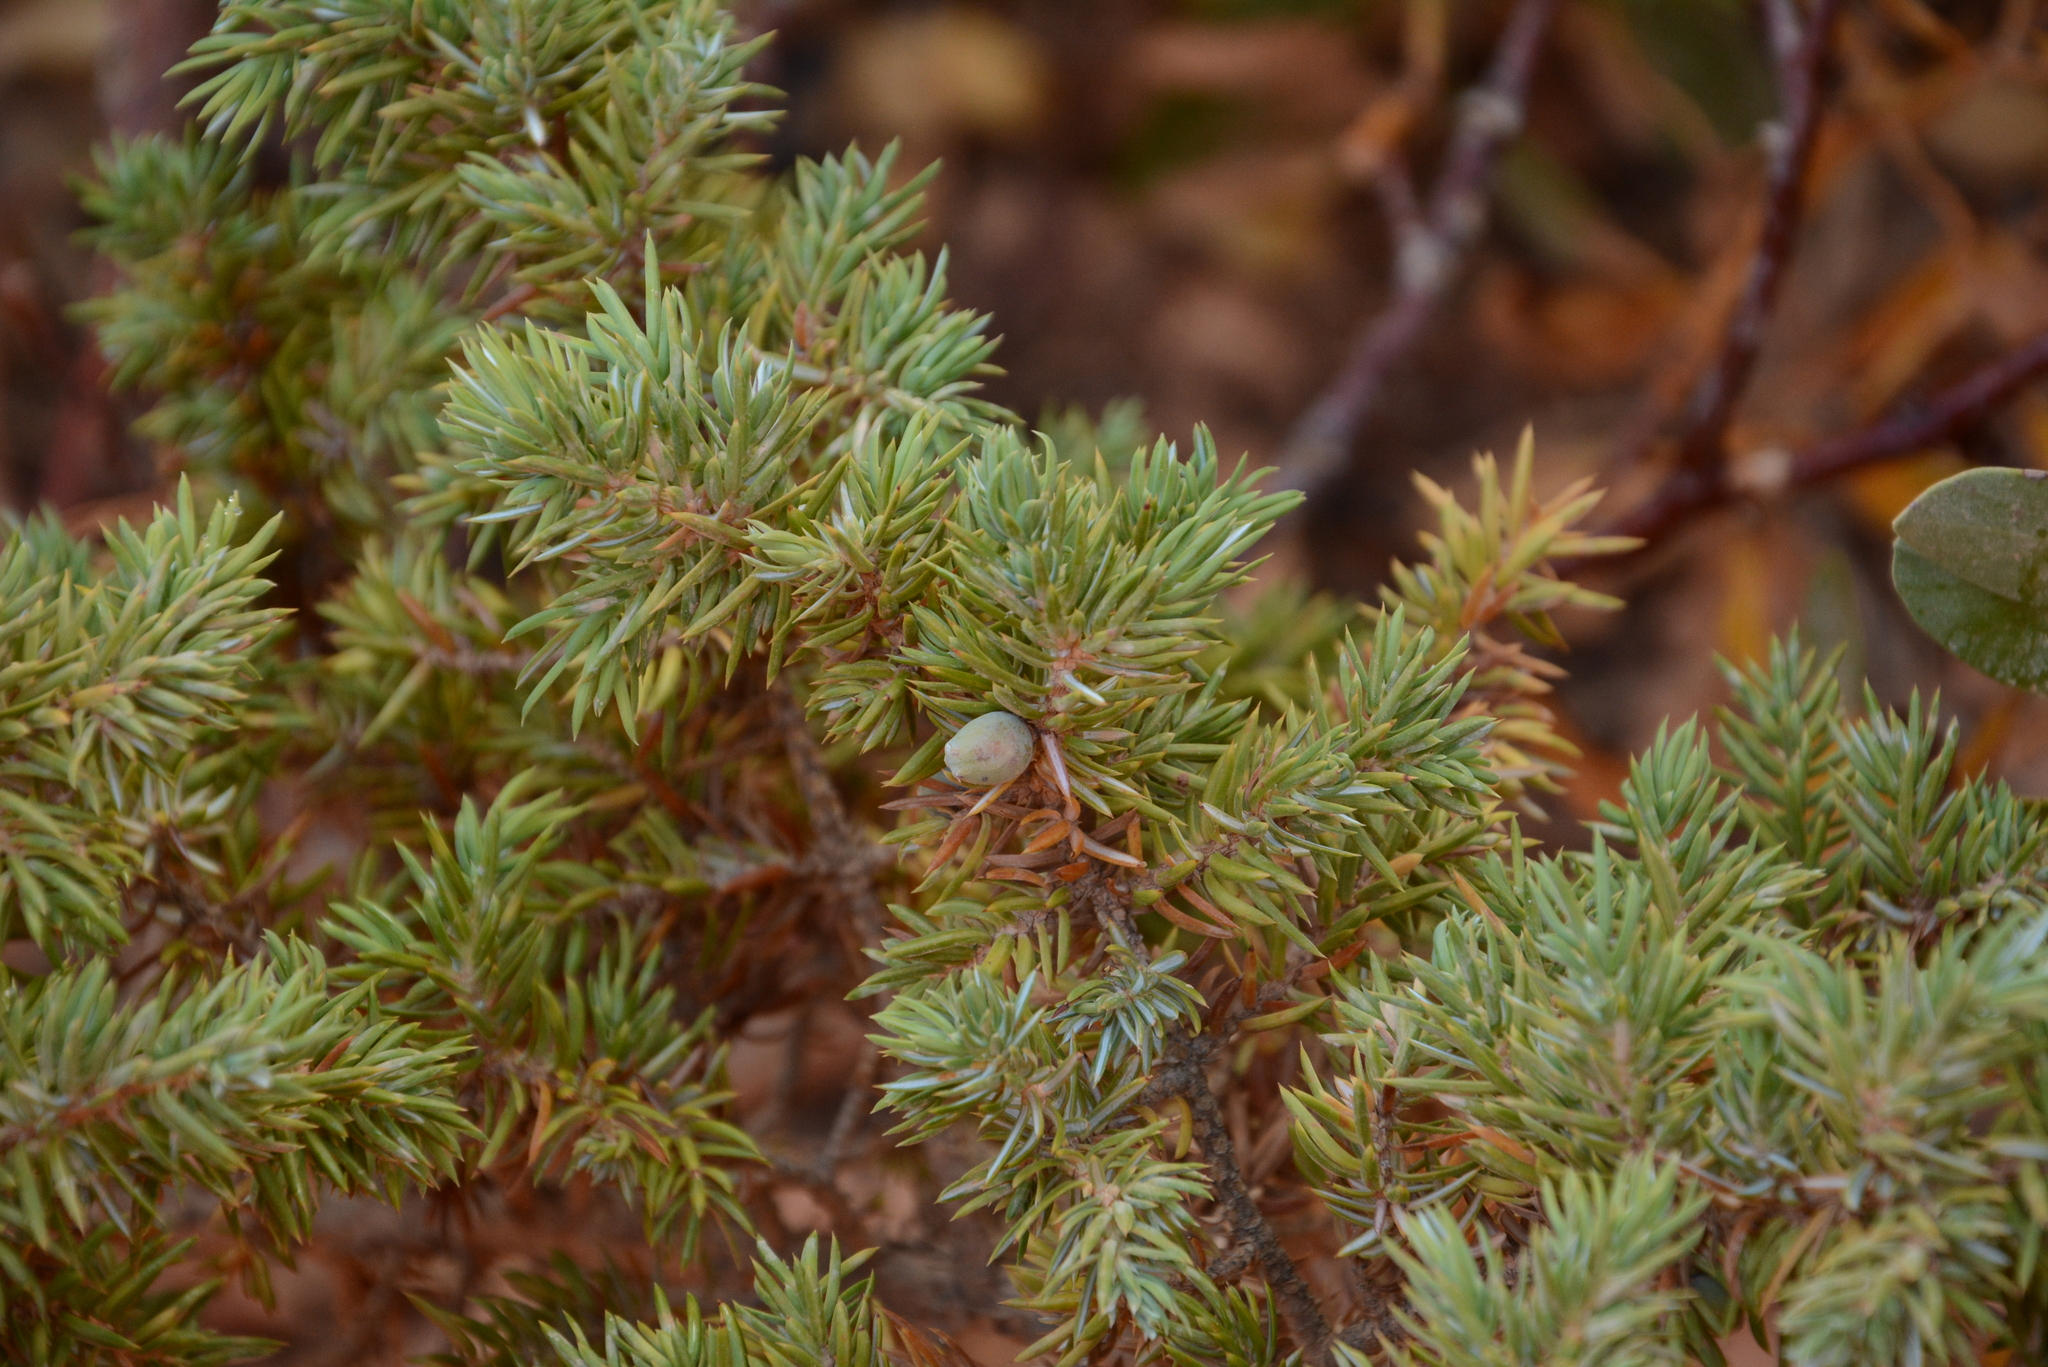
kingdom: Plantae
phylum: Tracheophyta
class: Pinopsida
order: Pinales
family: Cupressaceae
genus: Juniperus
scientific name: Juniperus communis
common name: Common juniper
